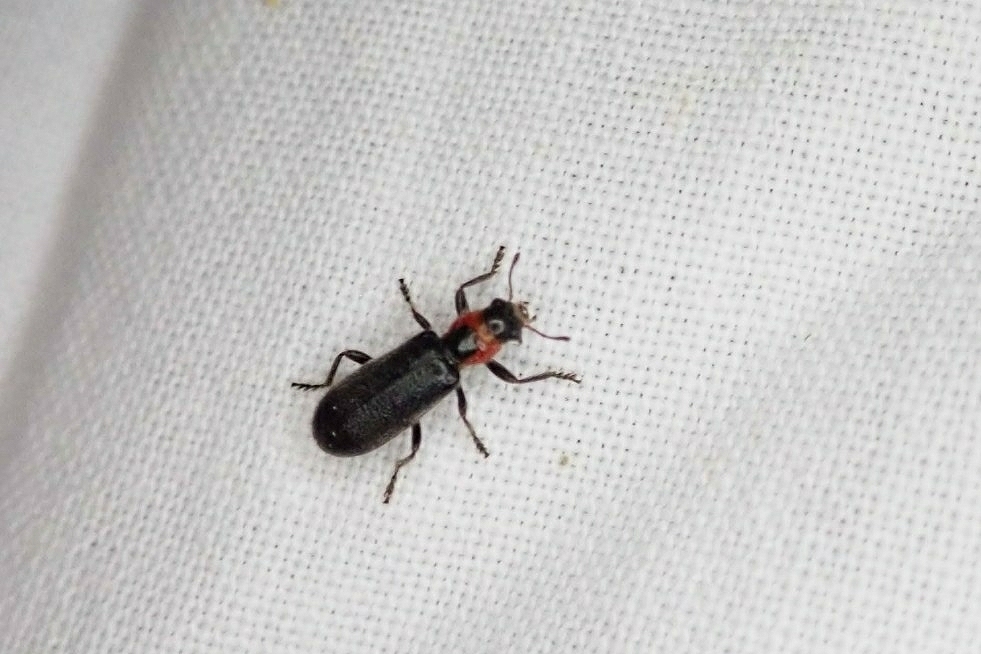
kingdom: Animalia
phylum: Arthropoda
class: Insecta
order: Coleoptera
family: Cleridae
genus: Placopterus
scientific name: Placopterus thoracicus
